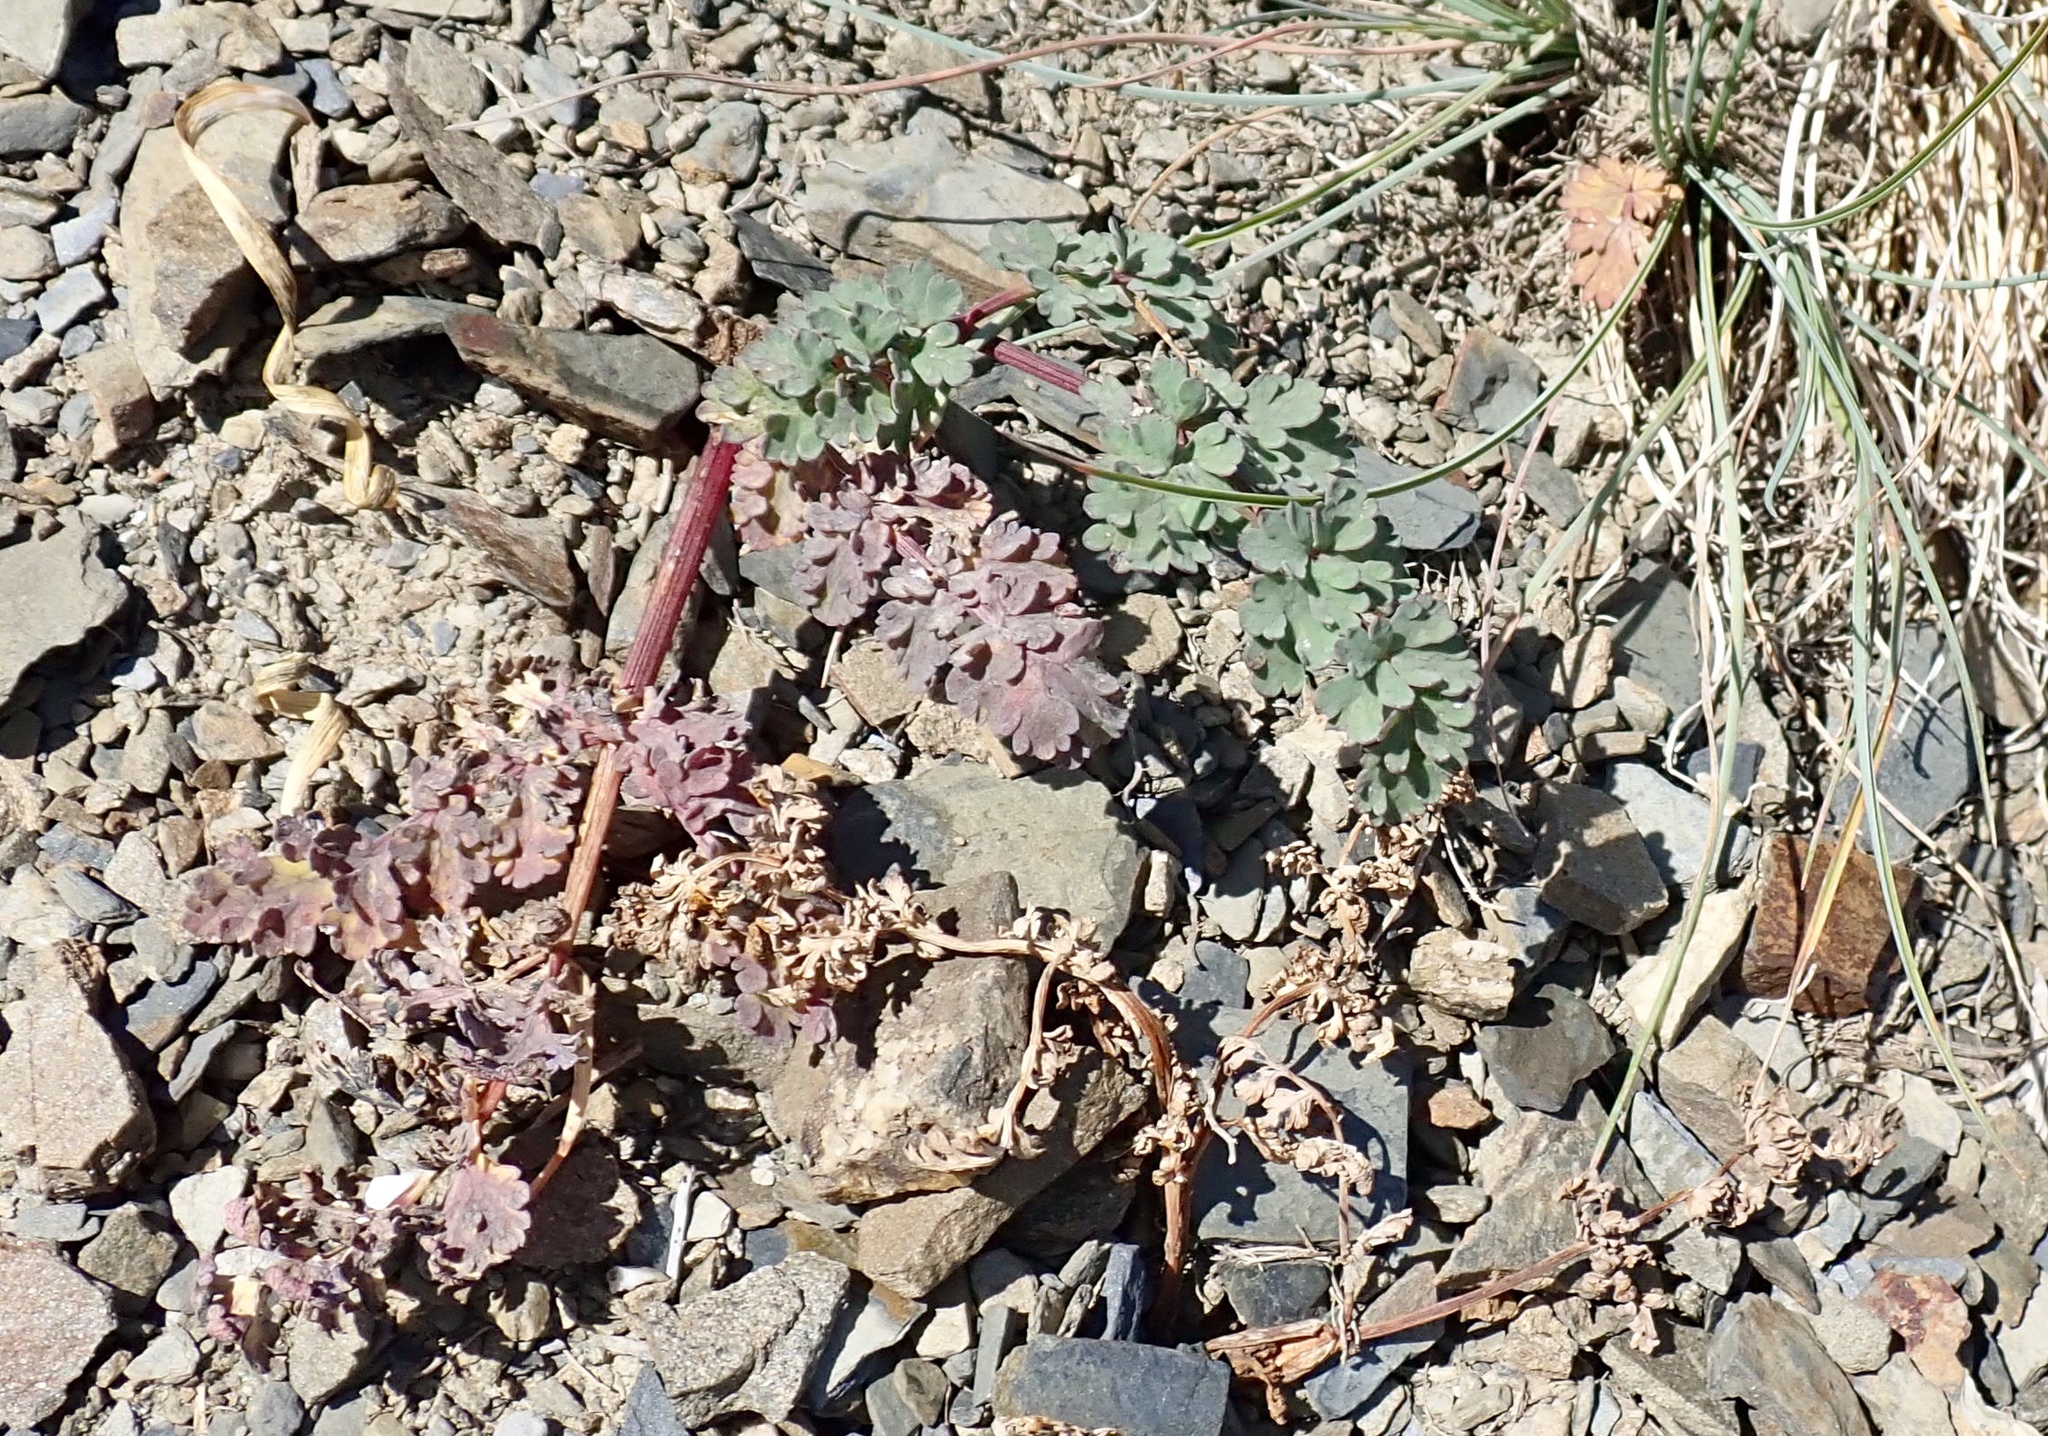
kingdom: Plantae
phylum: Tracheophyta
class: Magnoliopsida
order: Apiales
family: Apiaceae
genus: Lomatium
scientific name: Lomatium martindalei
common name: Cascade desert-parsley
